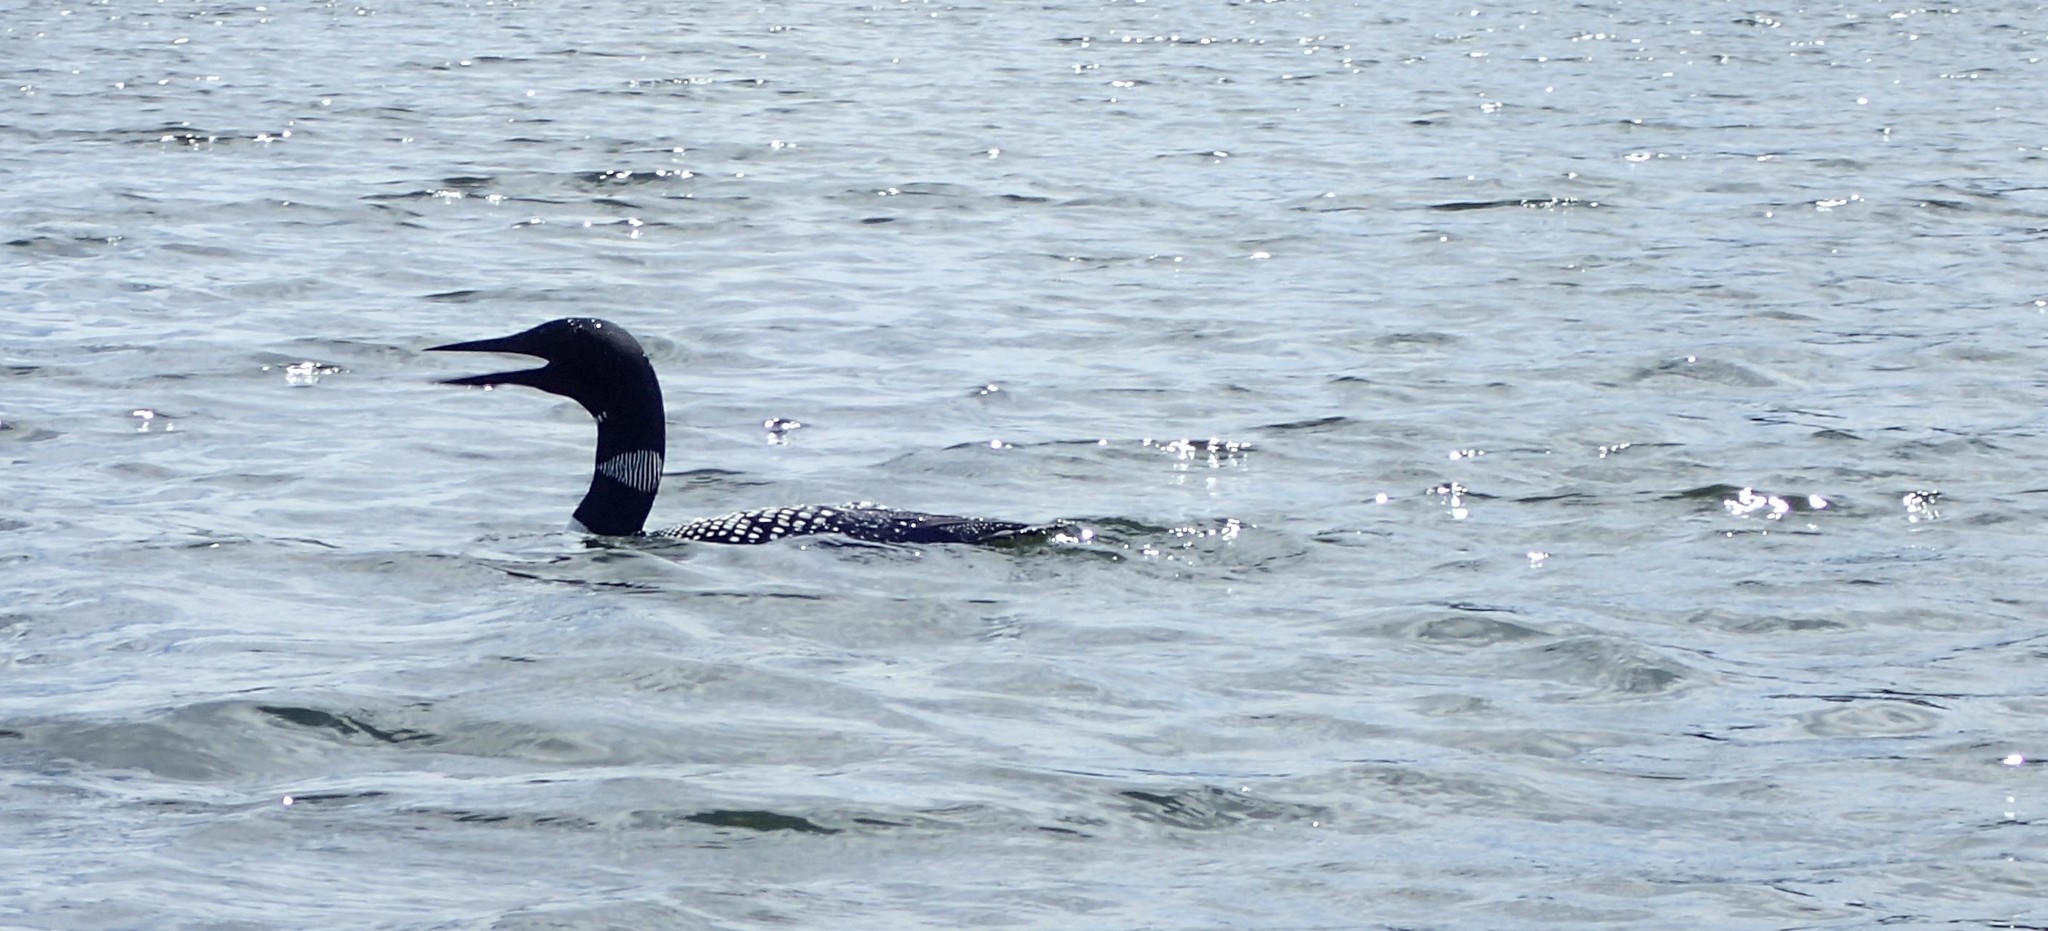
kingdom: Animalia
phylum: Chordata
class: Aves
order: Gaviiformes
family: Gaviidae
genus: Gavia
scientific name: Gavia immer
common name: Common loon
